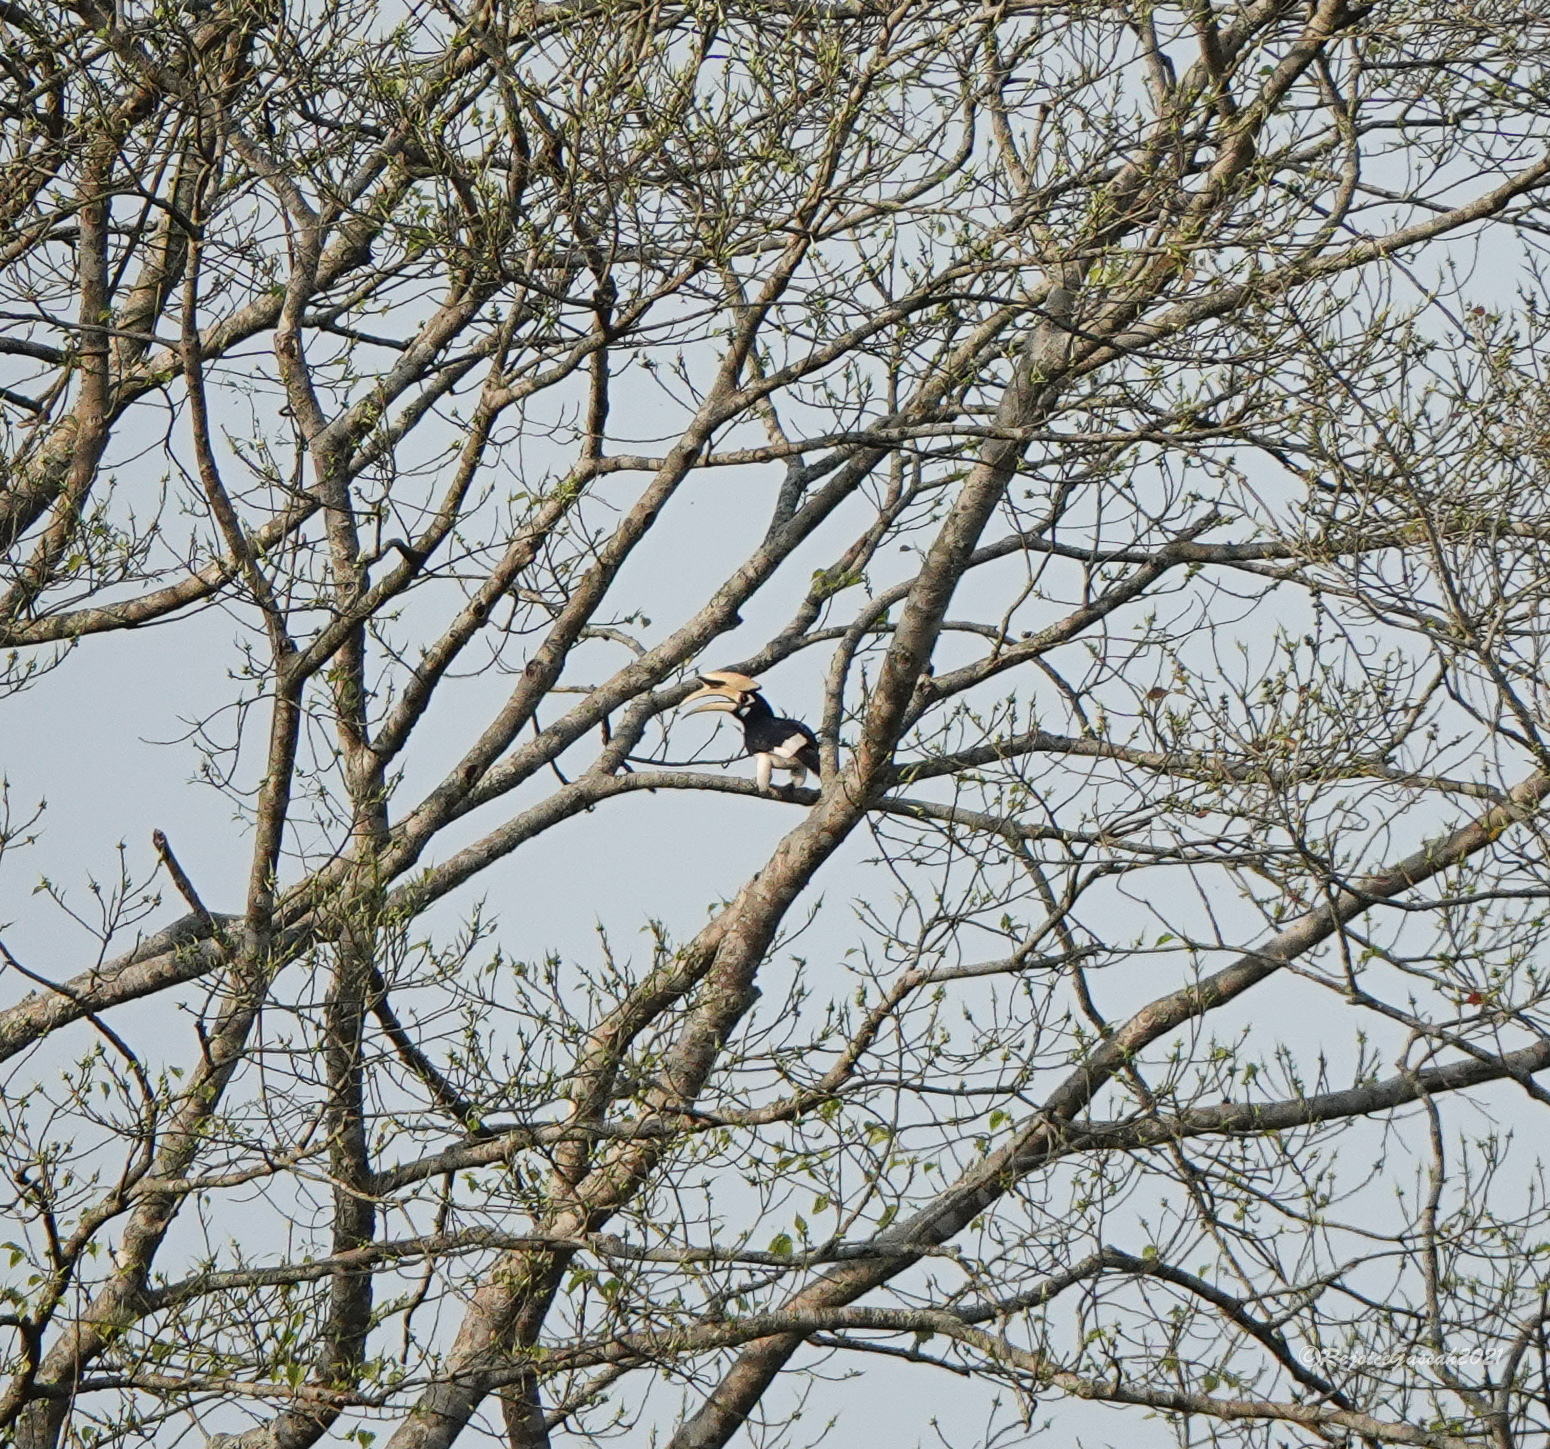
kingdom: Animalia
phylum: Chordata
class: Aves
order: Bucerotiformes
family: Bucerotidae
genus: Anthracoceros
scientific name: Anthracoceros albirostris
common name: Oriental pied-hornbill
